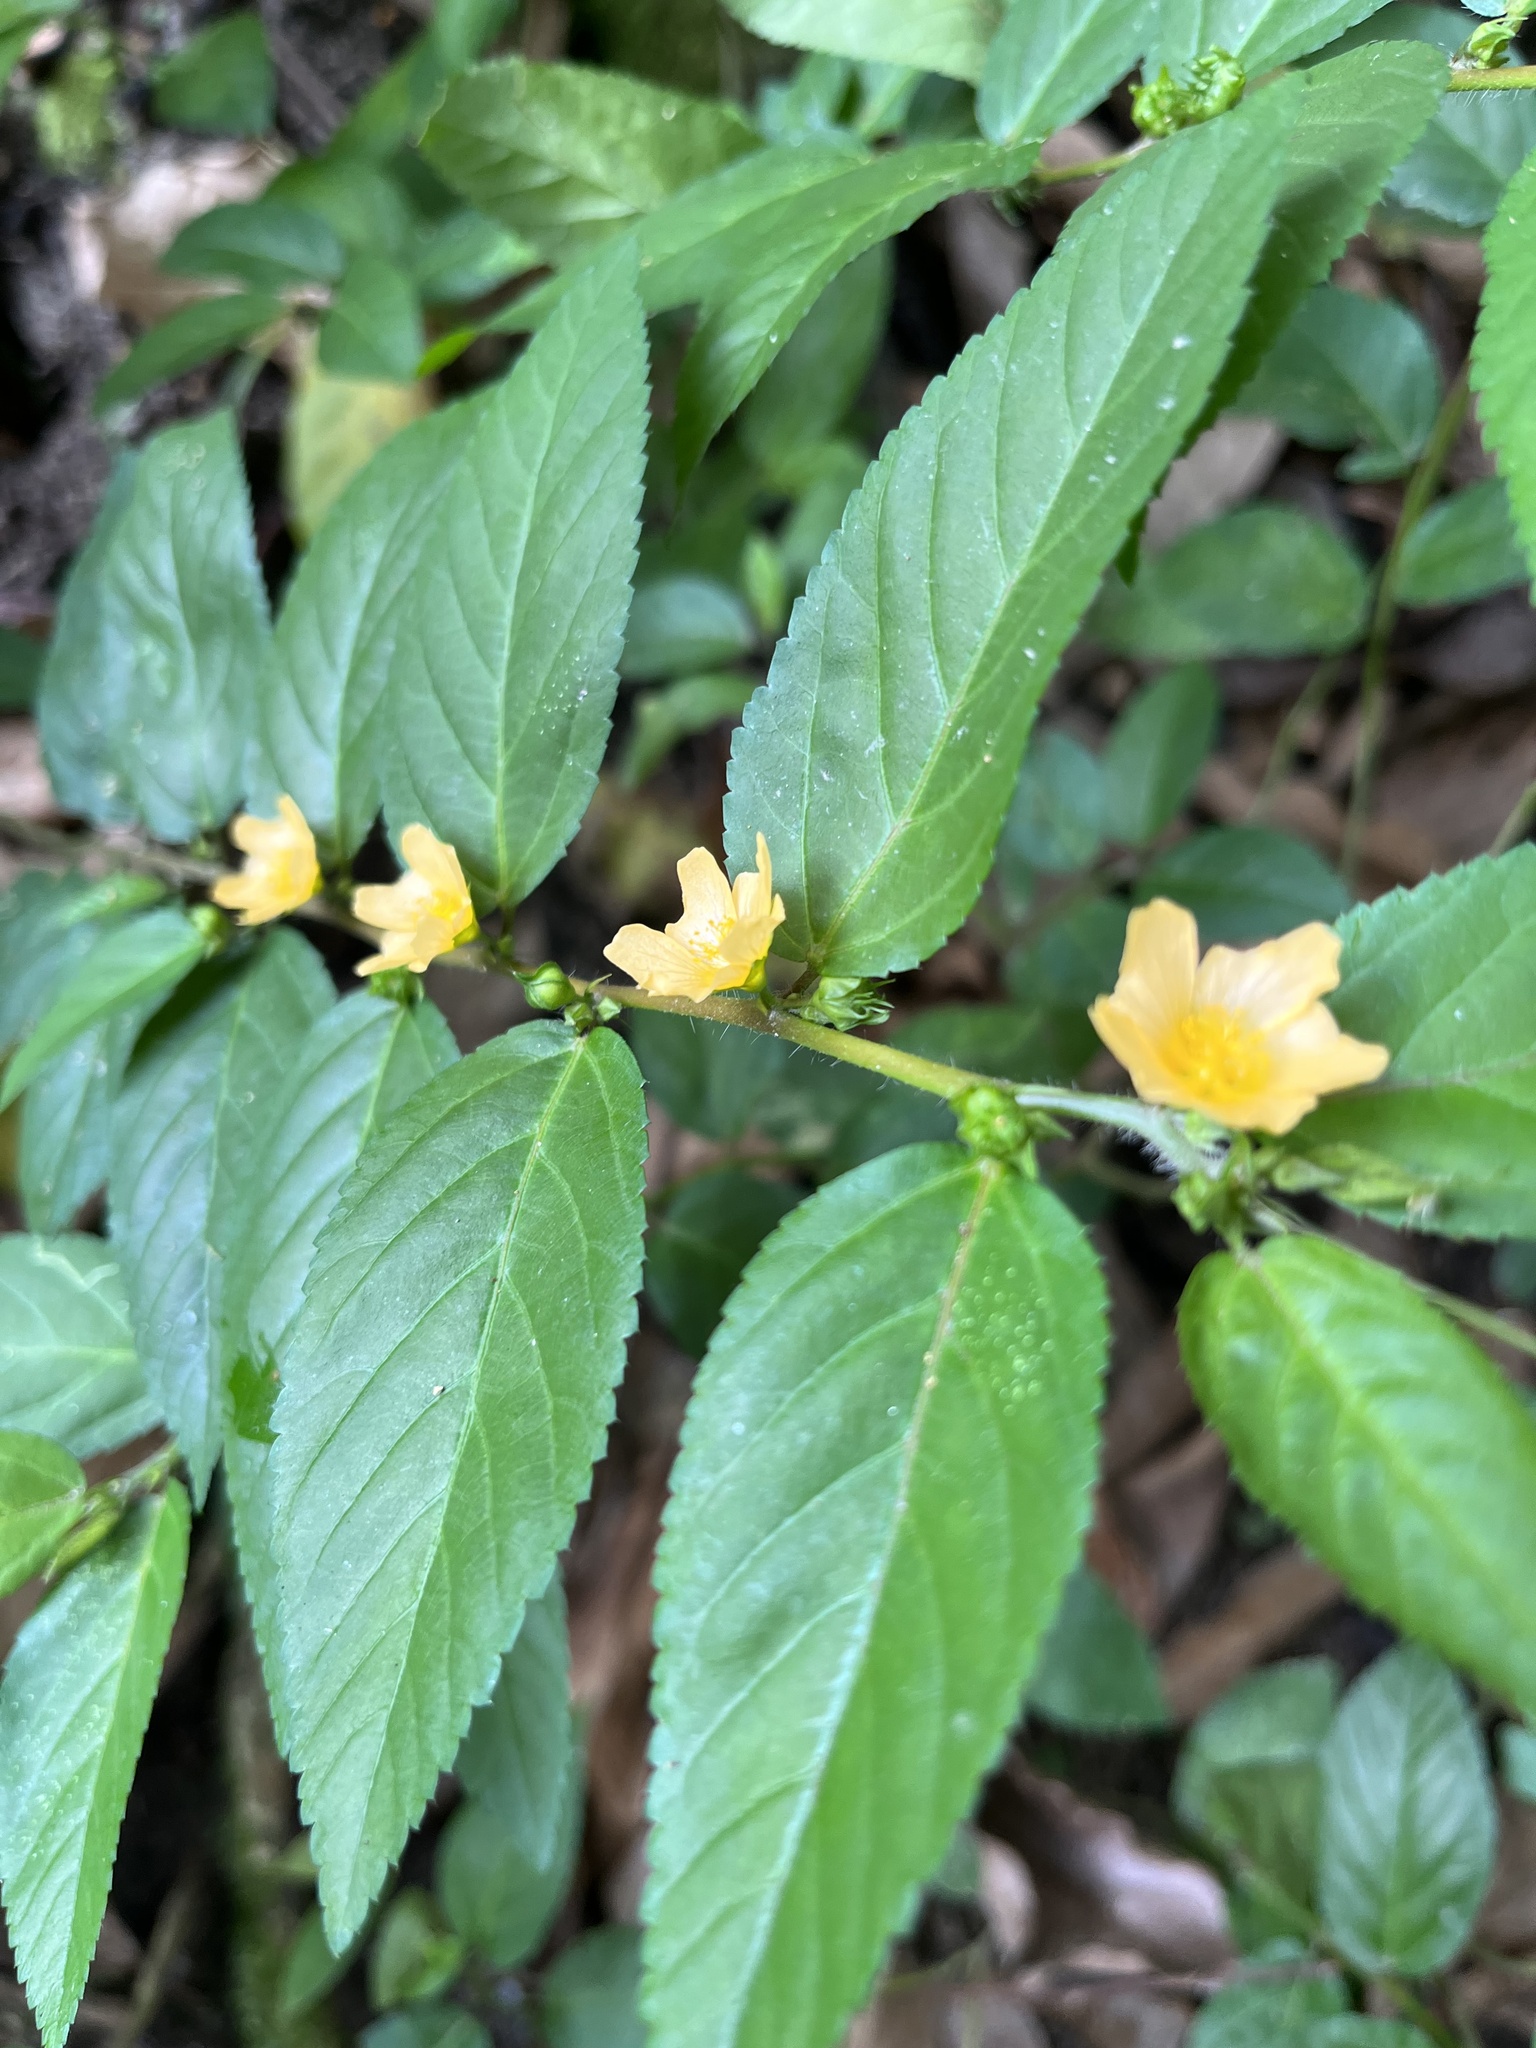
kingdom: Plantae
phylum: Tracheophyta
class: Magnoliopsida
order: Malvales
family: Malvaceae
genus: Sida
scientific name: Sida planicaulis
